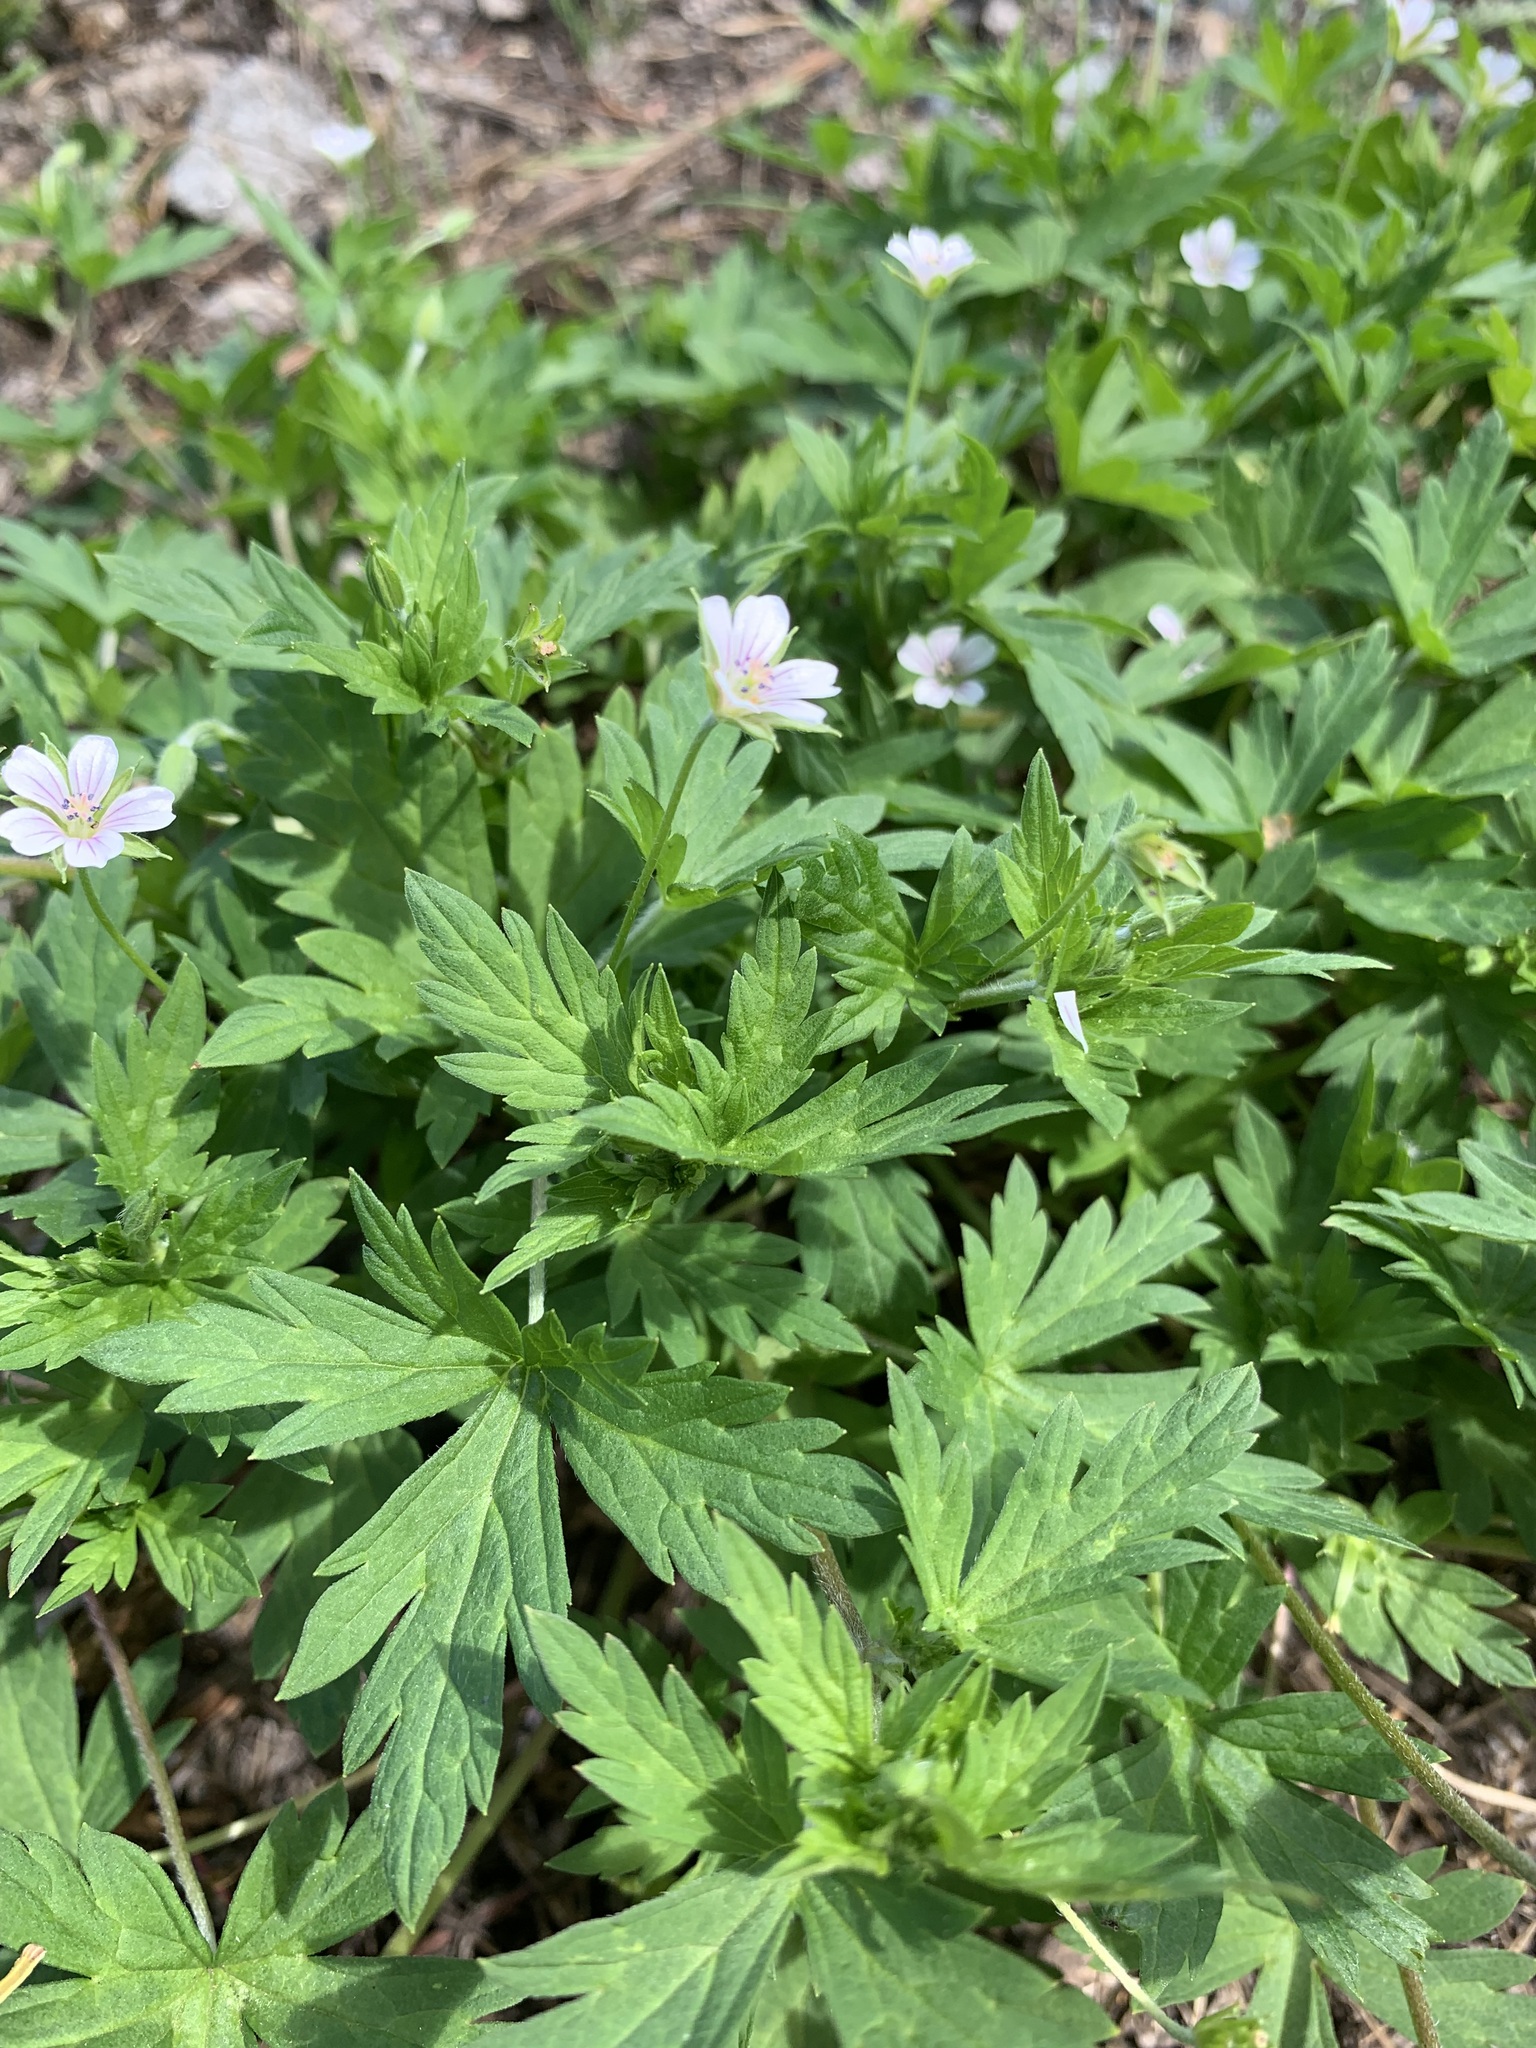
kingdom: Plantae
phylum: Tracheophyta
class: Magnoliopsida
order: Geraniales
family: Geraniaceae
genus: Geranium
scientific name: Geranium sibiricum
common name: Siberian crane's-bill
